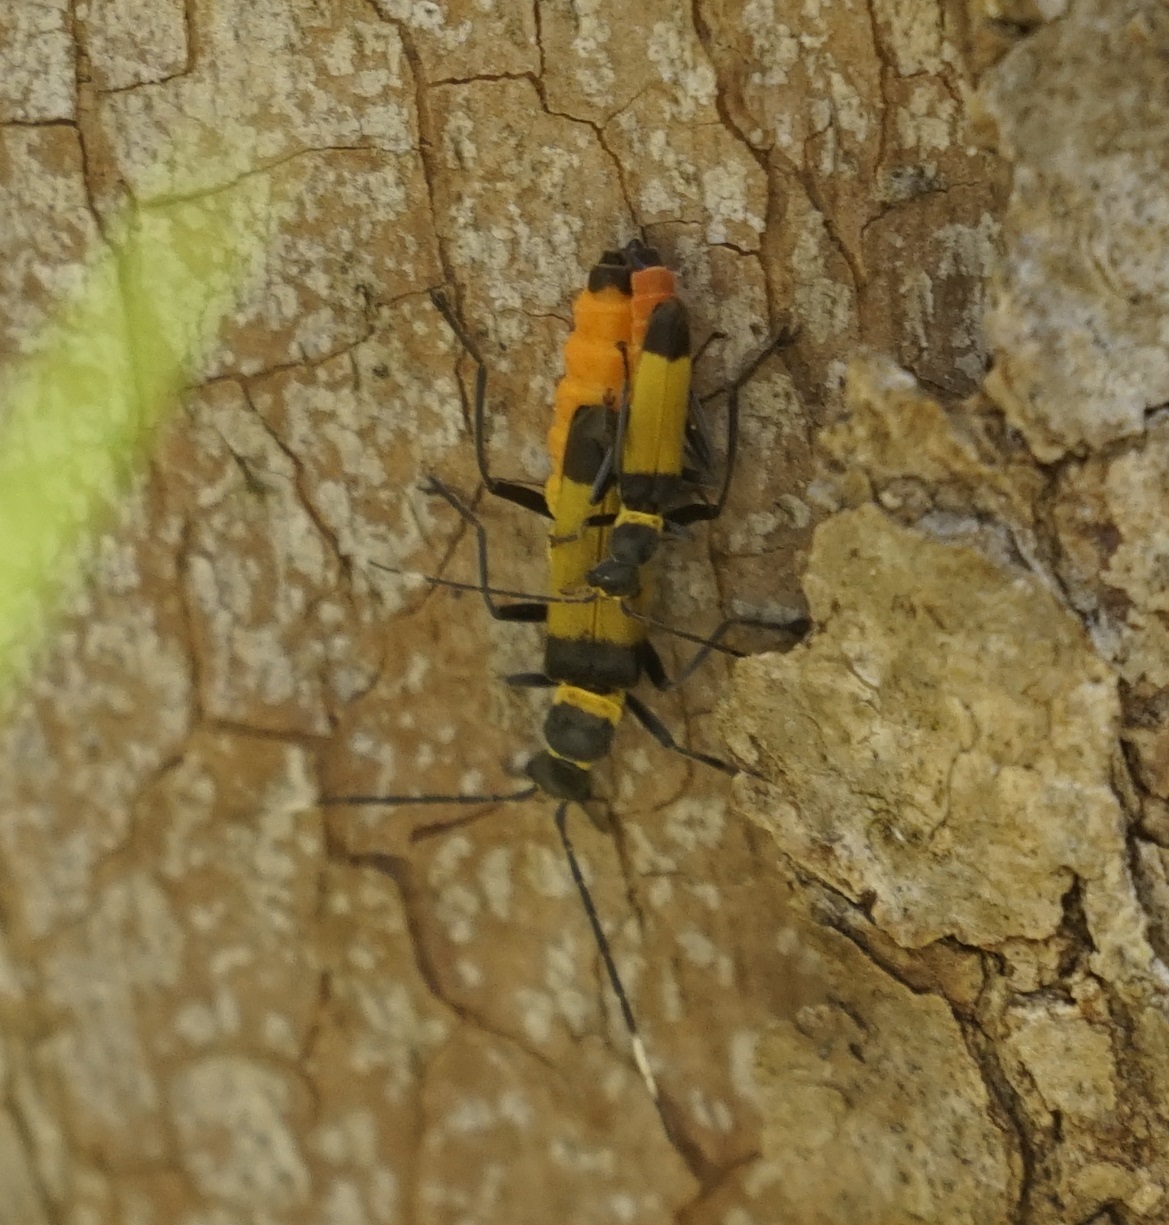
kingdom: Animalia
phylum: Arthropoda
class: Insecta
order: Coleoptera
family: Cantharidae
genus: Chauliognathus
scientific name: Chauliognathus
